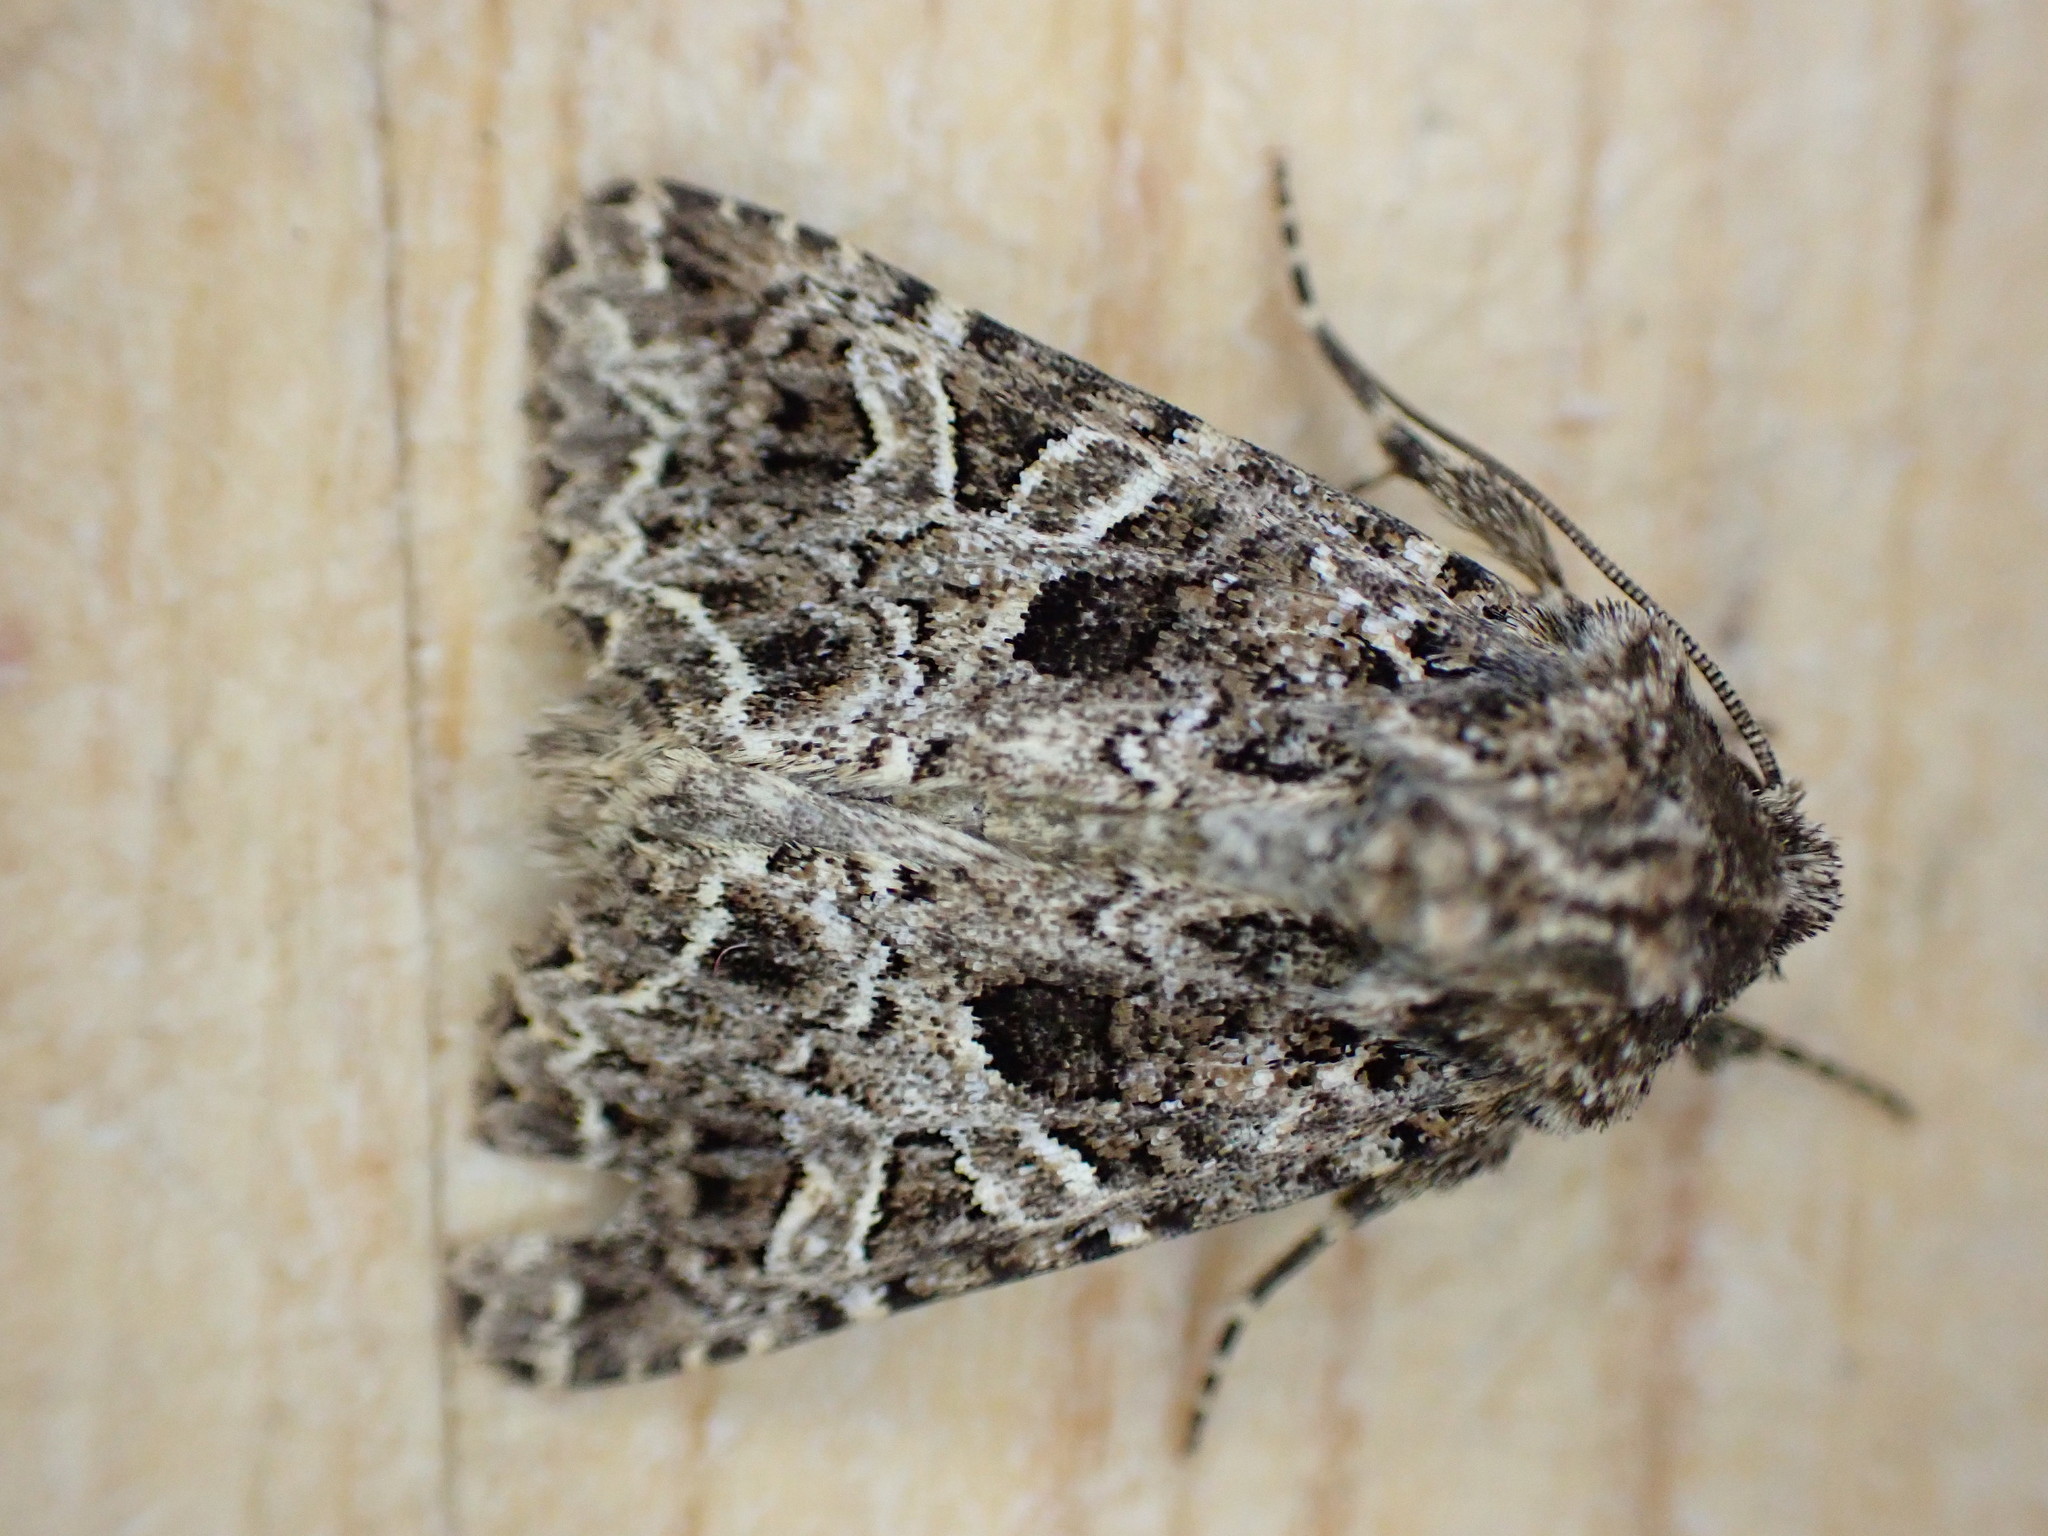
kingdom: Animalia
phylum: Arthropoda
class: Insecta
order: Lepidoptera
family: Noctuidae
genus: Hadena
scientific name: Hadena bicruris
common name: Lychnis
